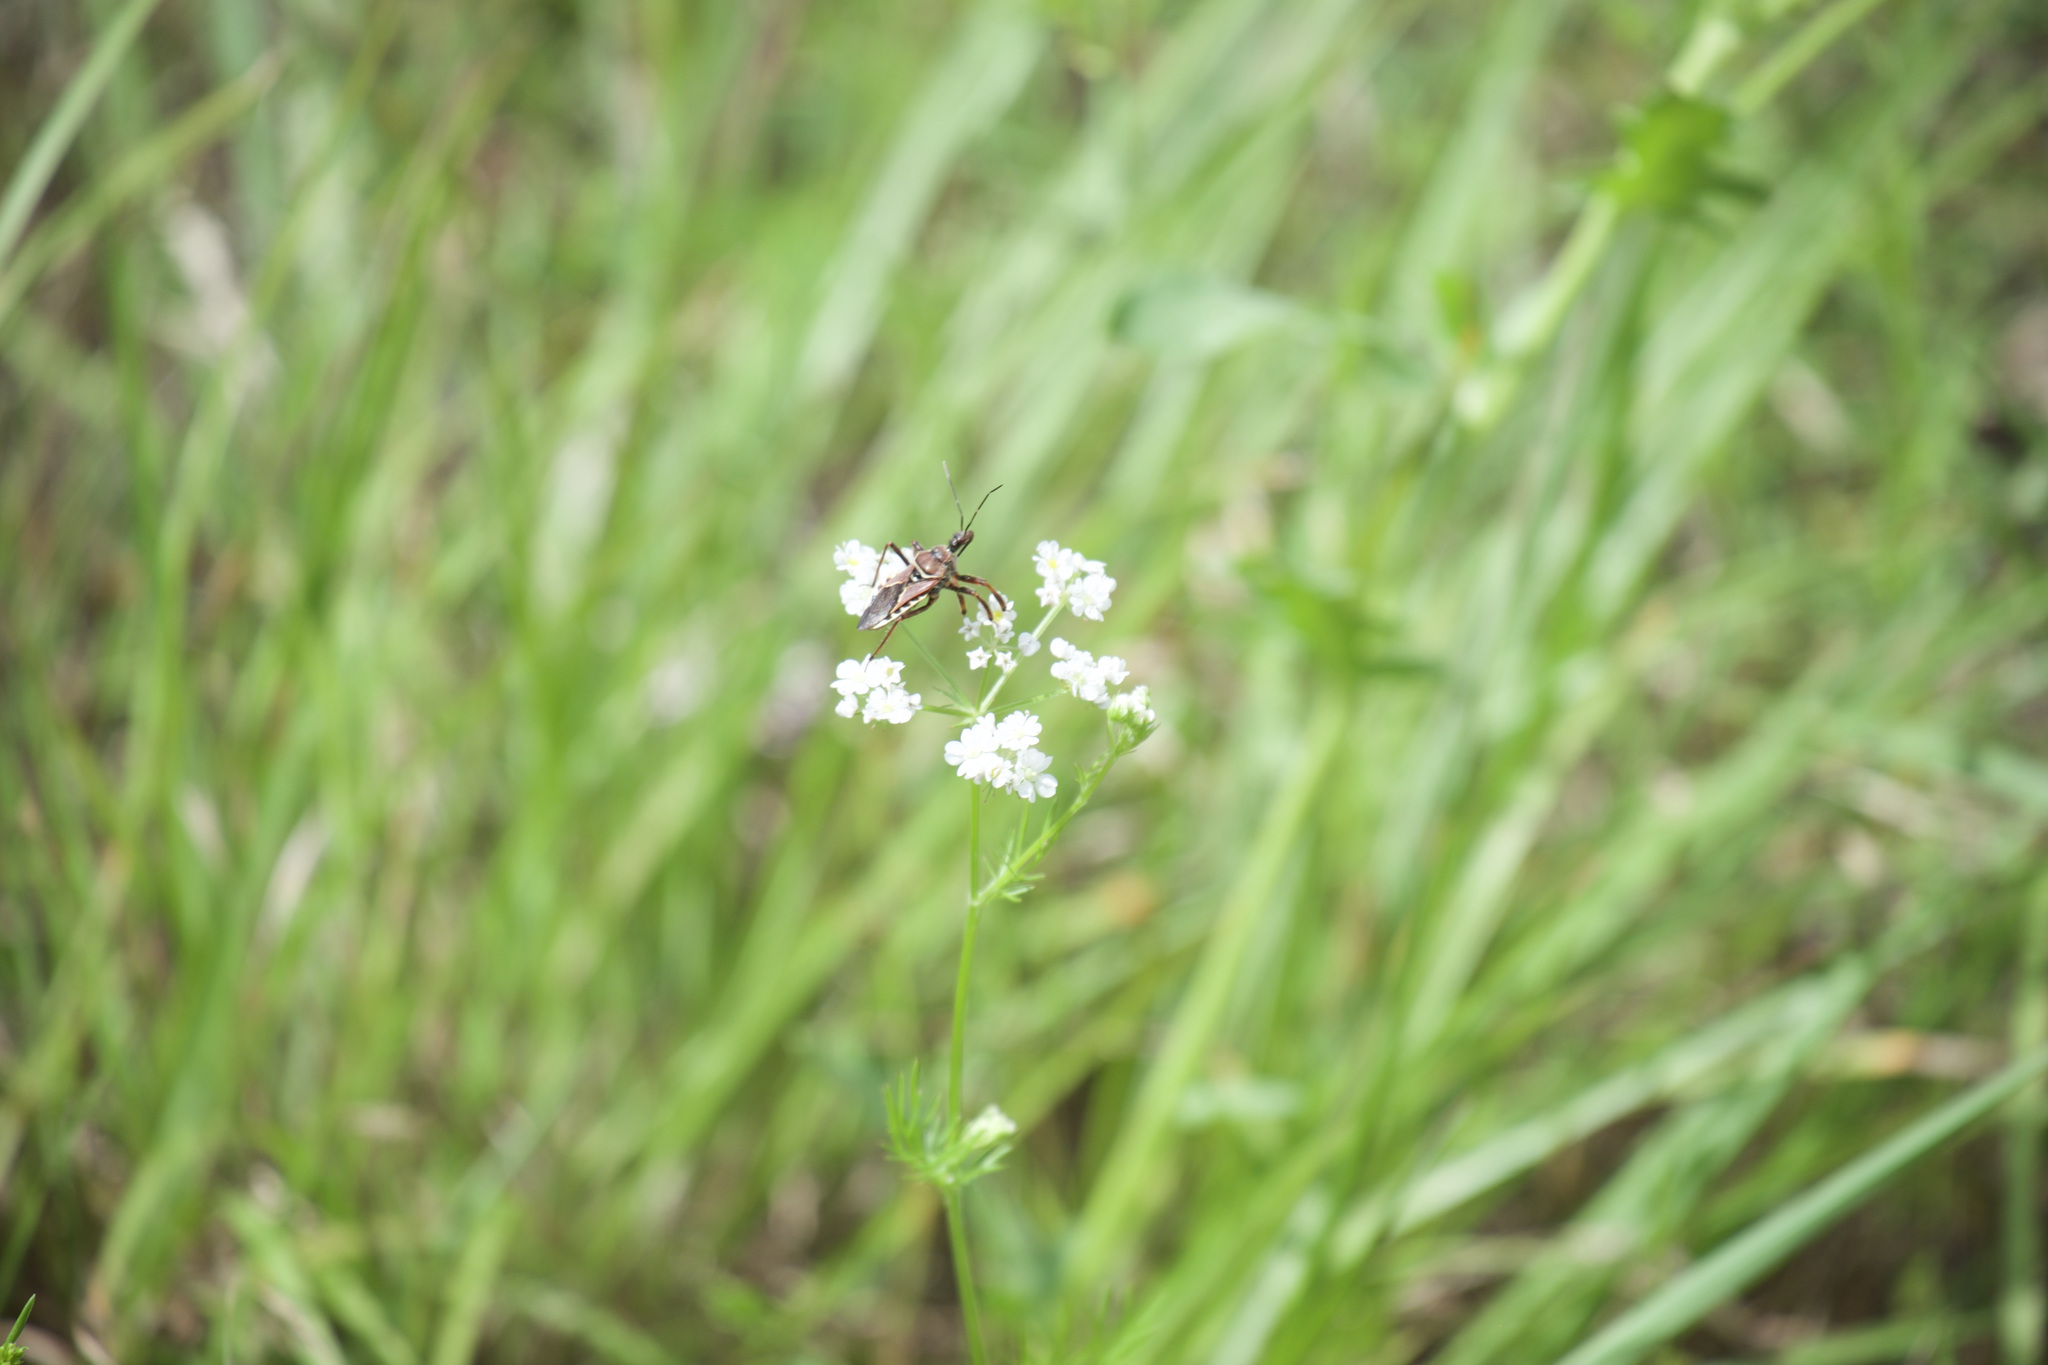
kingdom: Animalia
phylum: Arthropoda
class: Insecta
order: Hemiptera
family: Reduviidae
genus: Apiomerus
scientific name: Apiomerus spissipes
